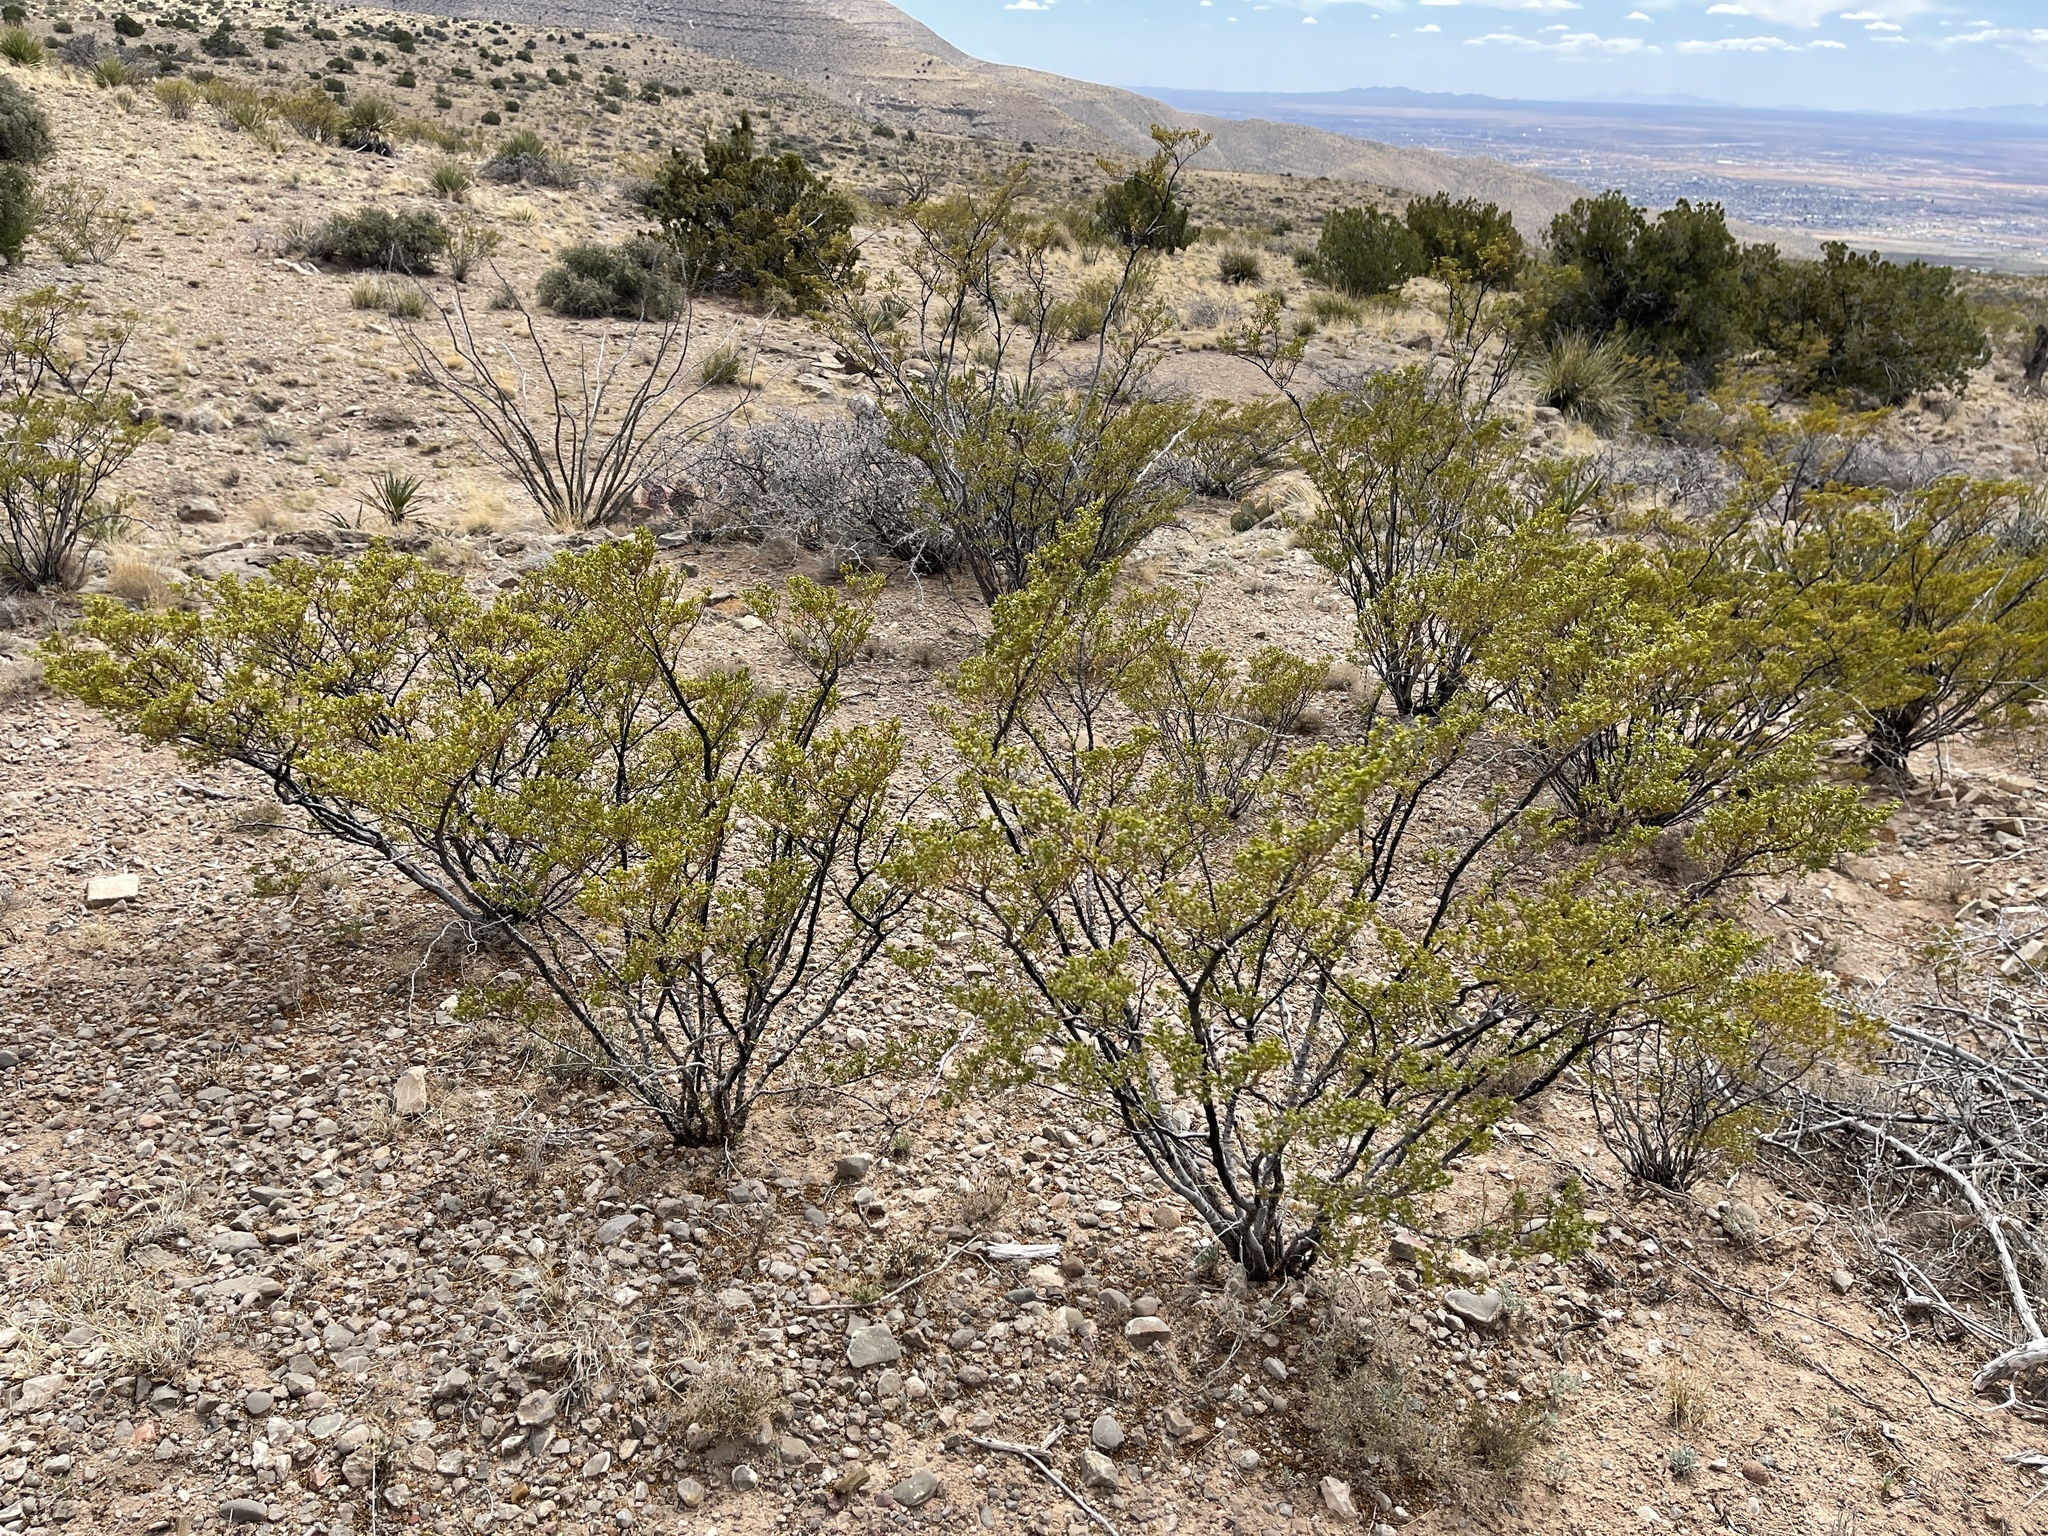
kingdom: Plantae
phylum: Tracheophyta
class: Magnoliopsida
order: Zygophyllales
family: Zygophyllaceae
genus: Larrea
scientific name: Larrea tridentata
